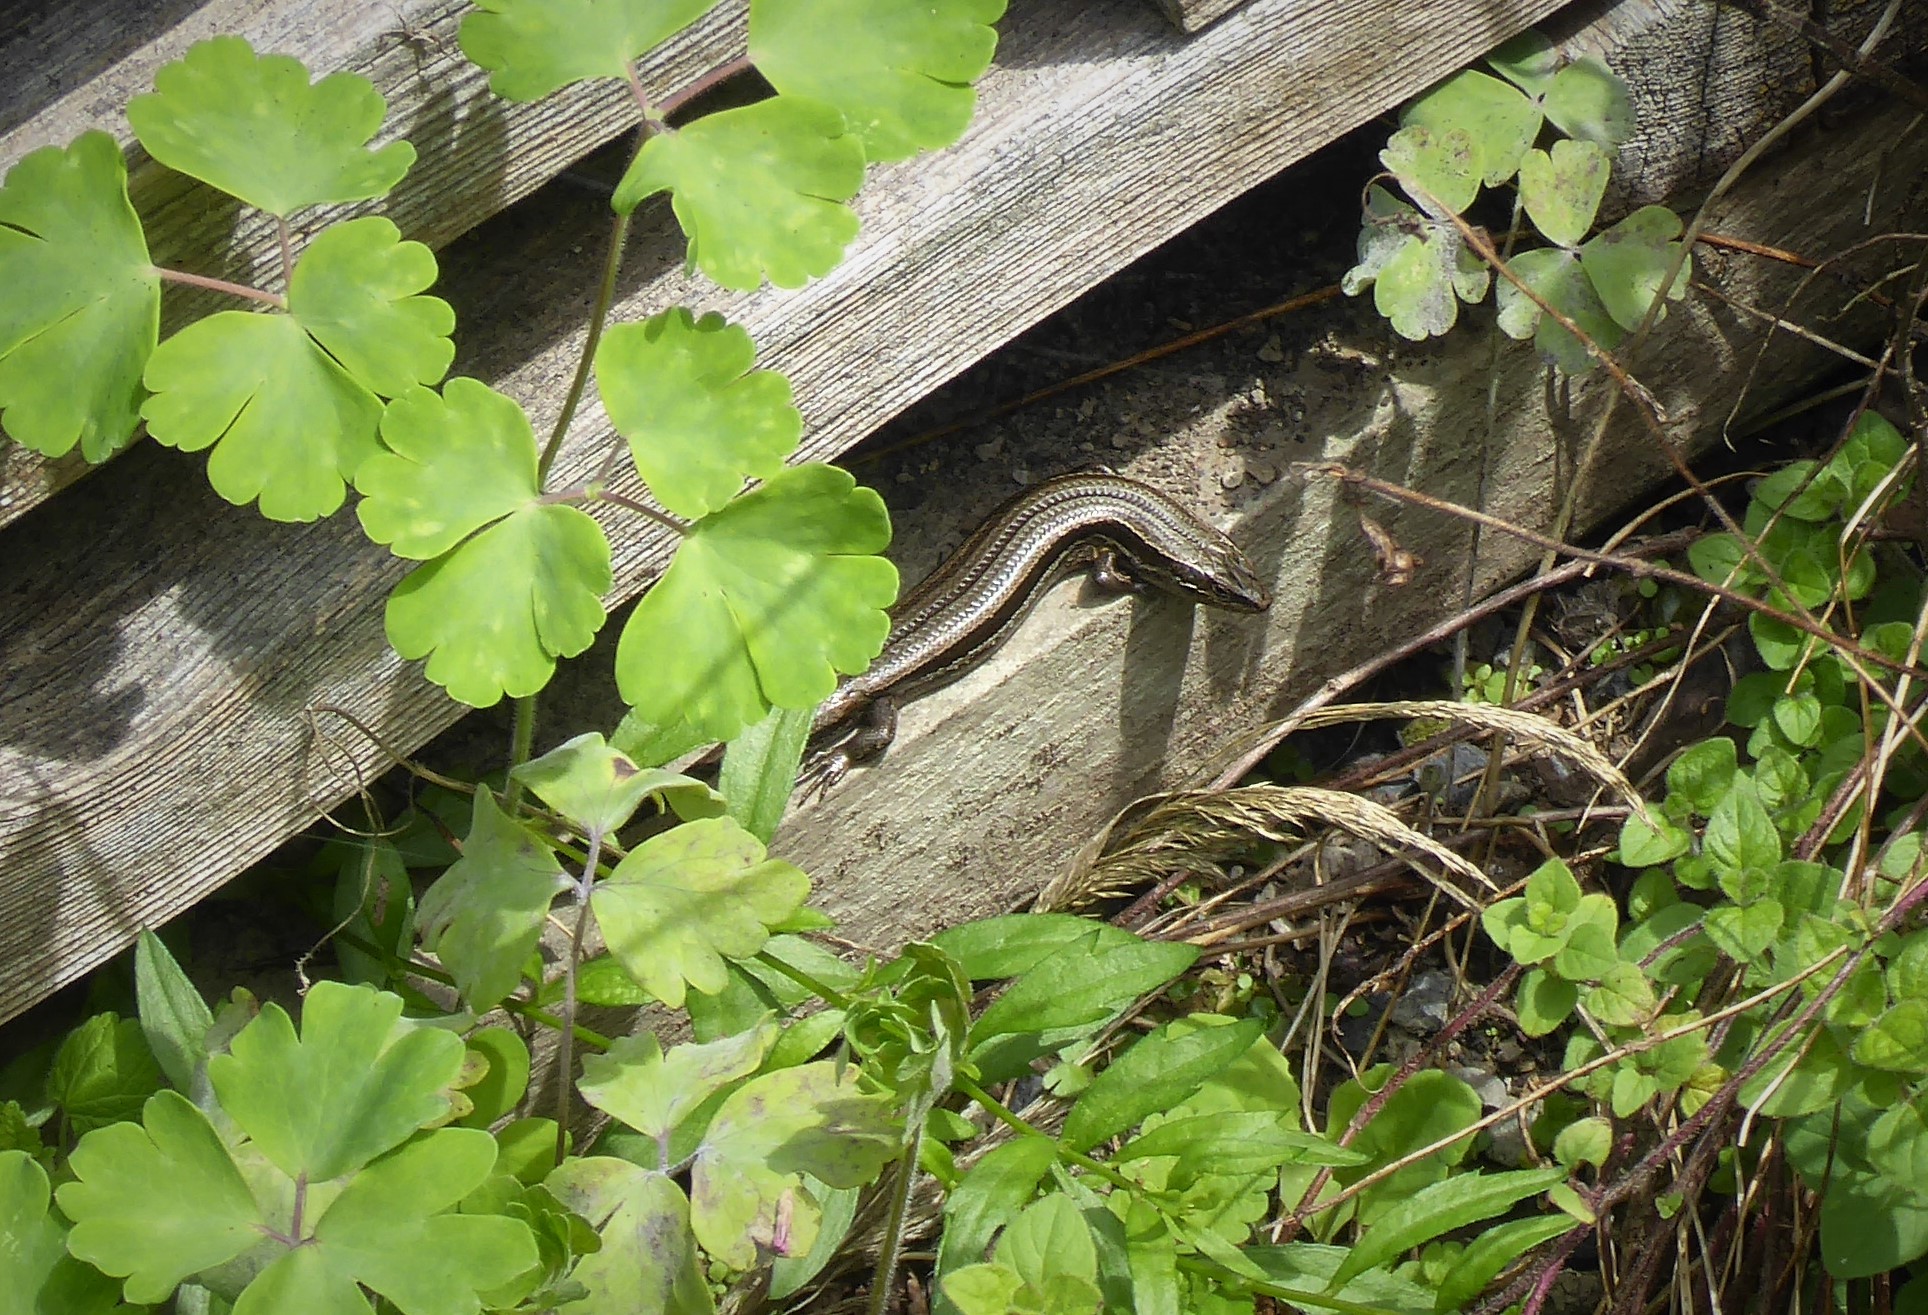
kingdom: Animalia
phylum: Chordata
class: Squamata
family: Scincidae
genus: Oligosoma
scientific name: Oligosoma polychroma
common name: Common new zealand skink
